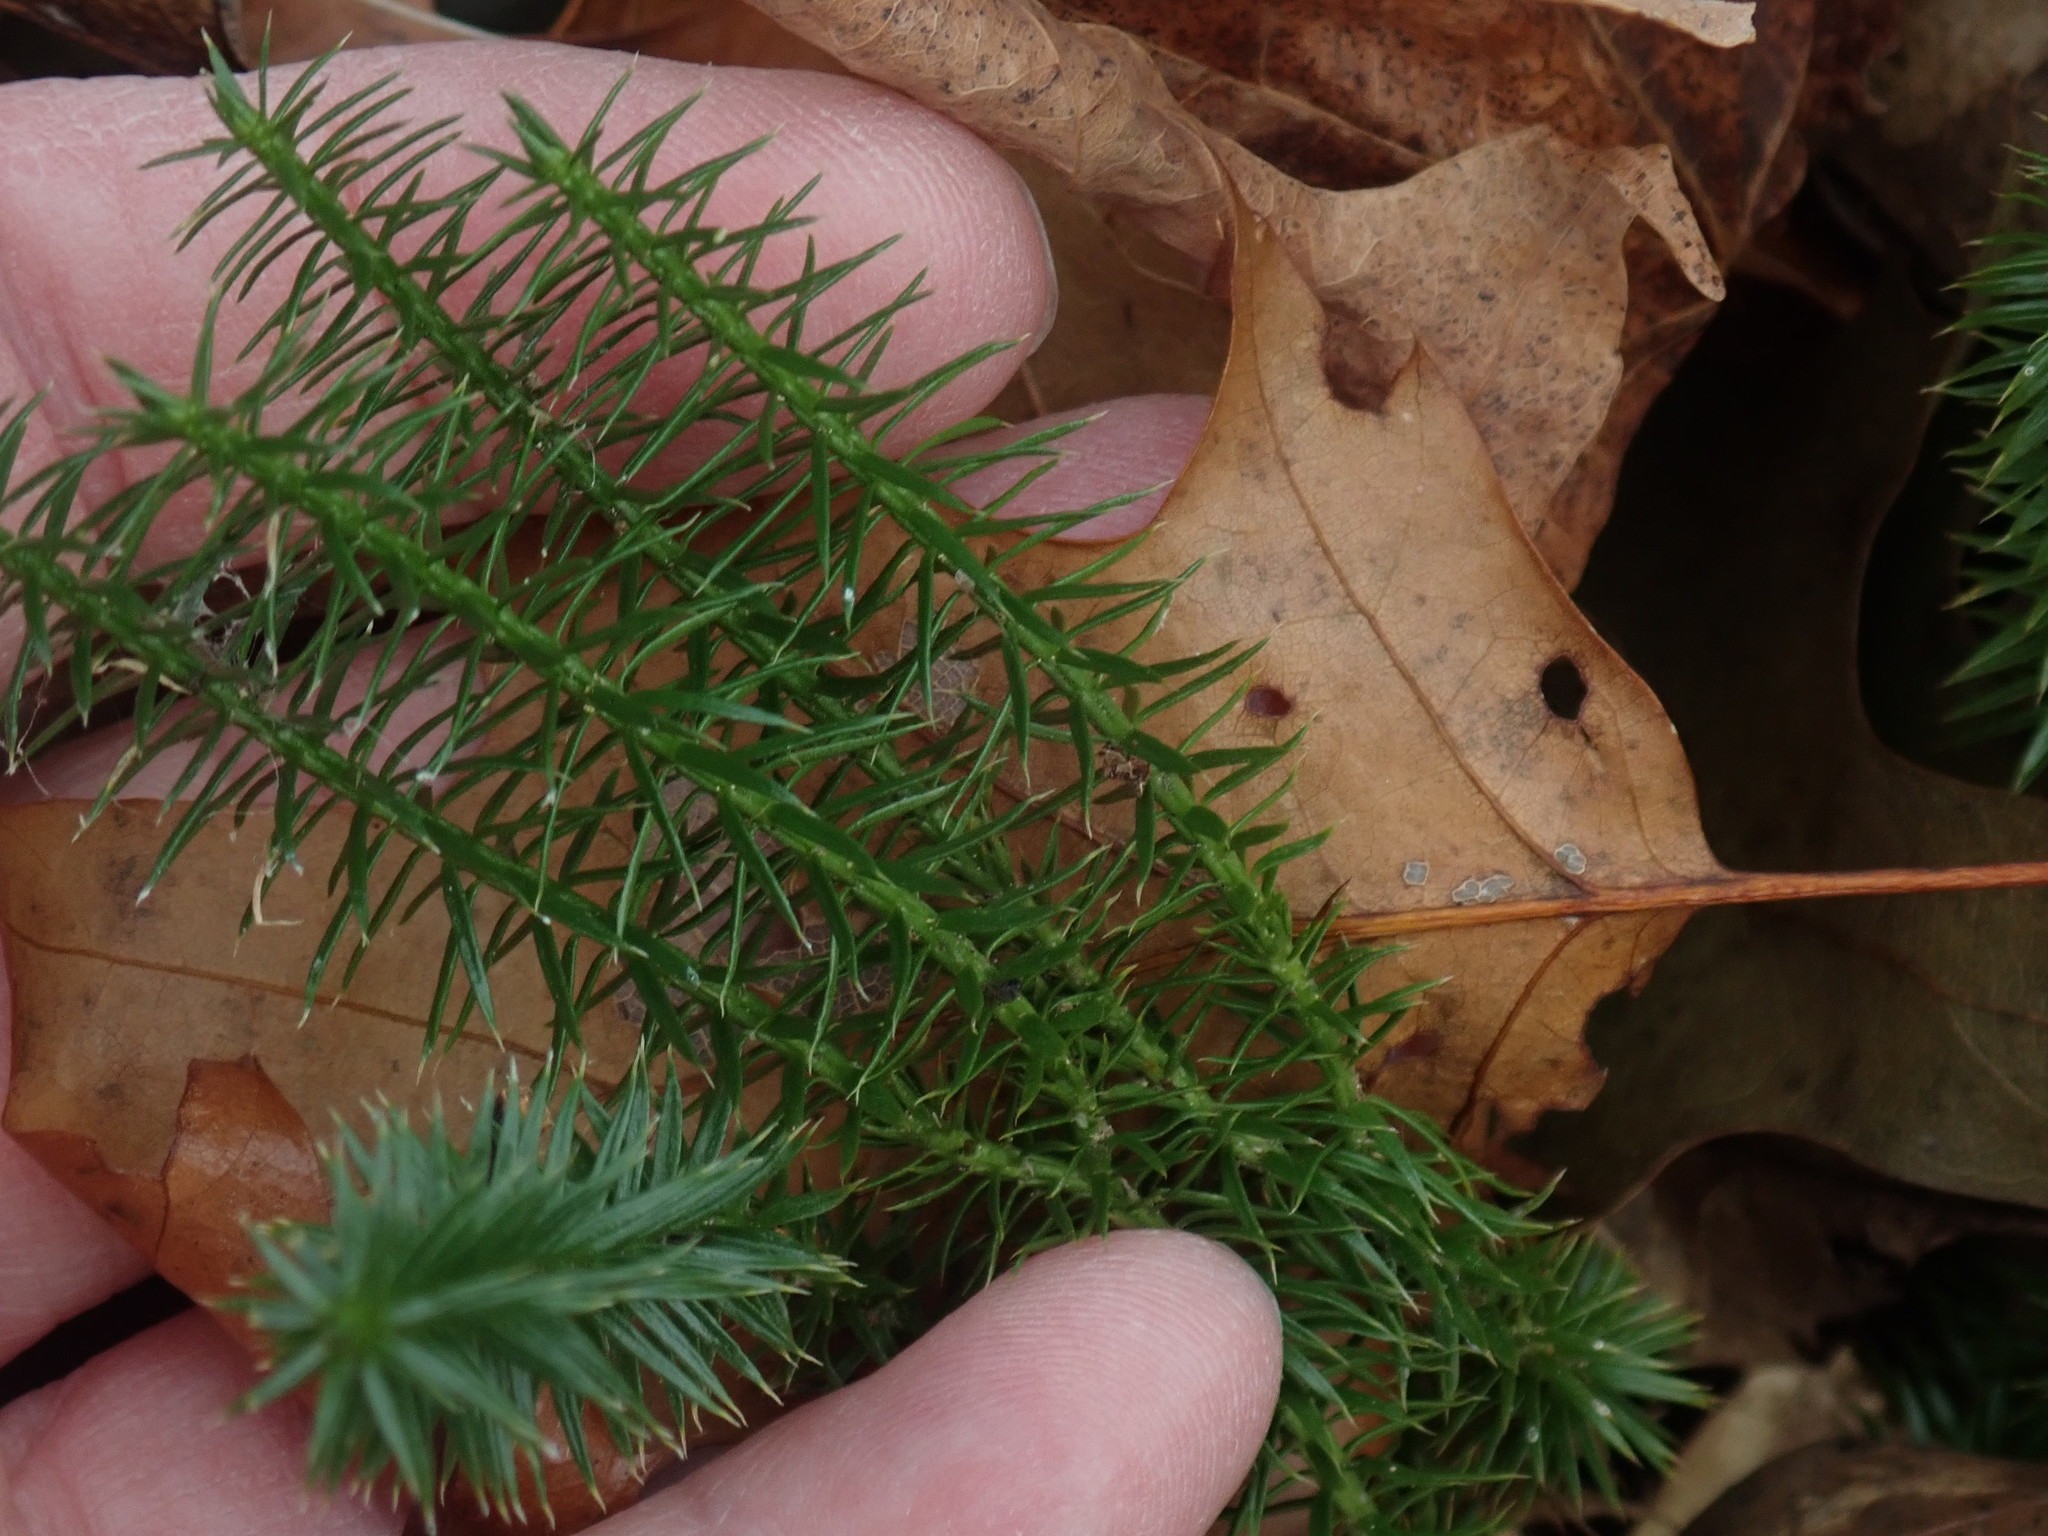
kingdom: Plantae
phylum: Tracheophyta
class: Lycopodiopsida
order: Lycopodiales
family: Lycopodiaceae
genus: Spinulum
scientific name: Spinulum annotinum
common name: Interrupted club-moss
